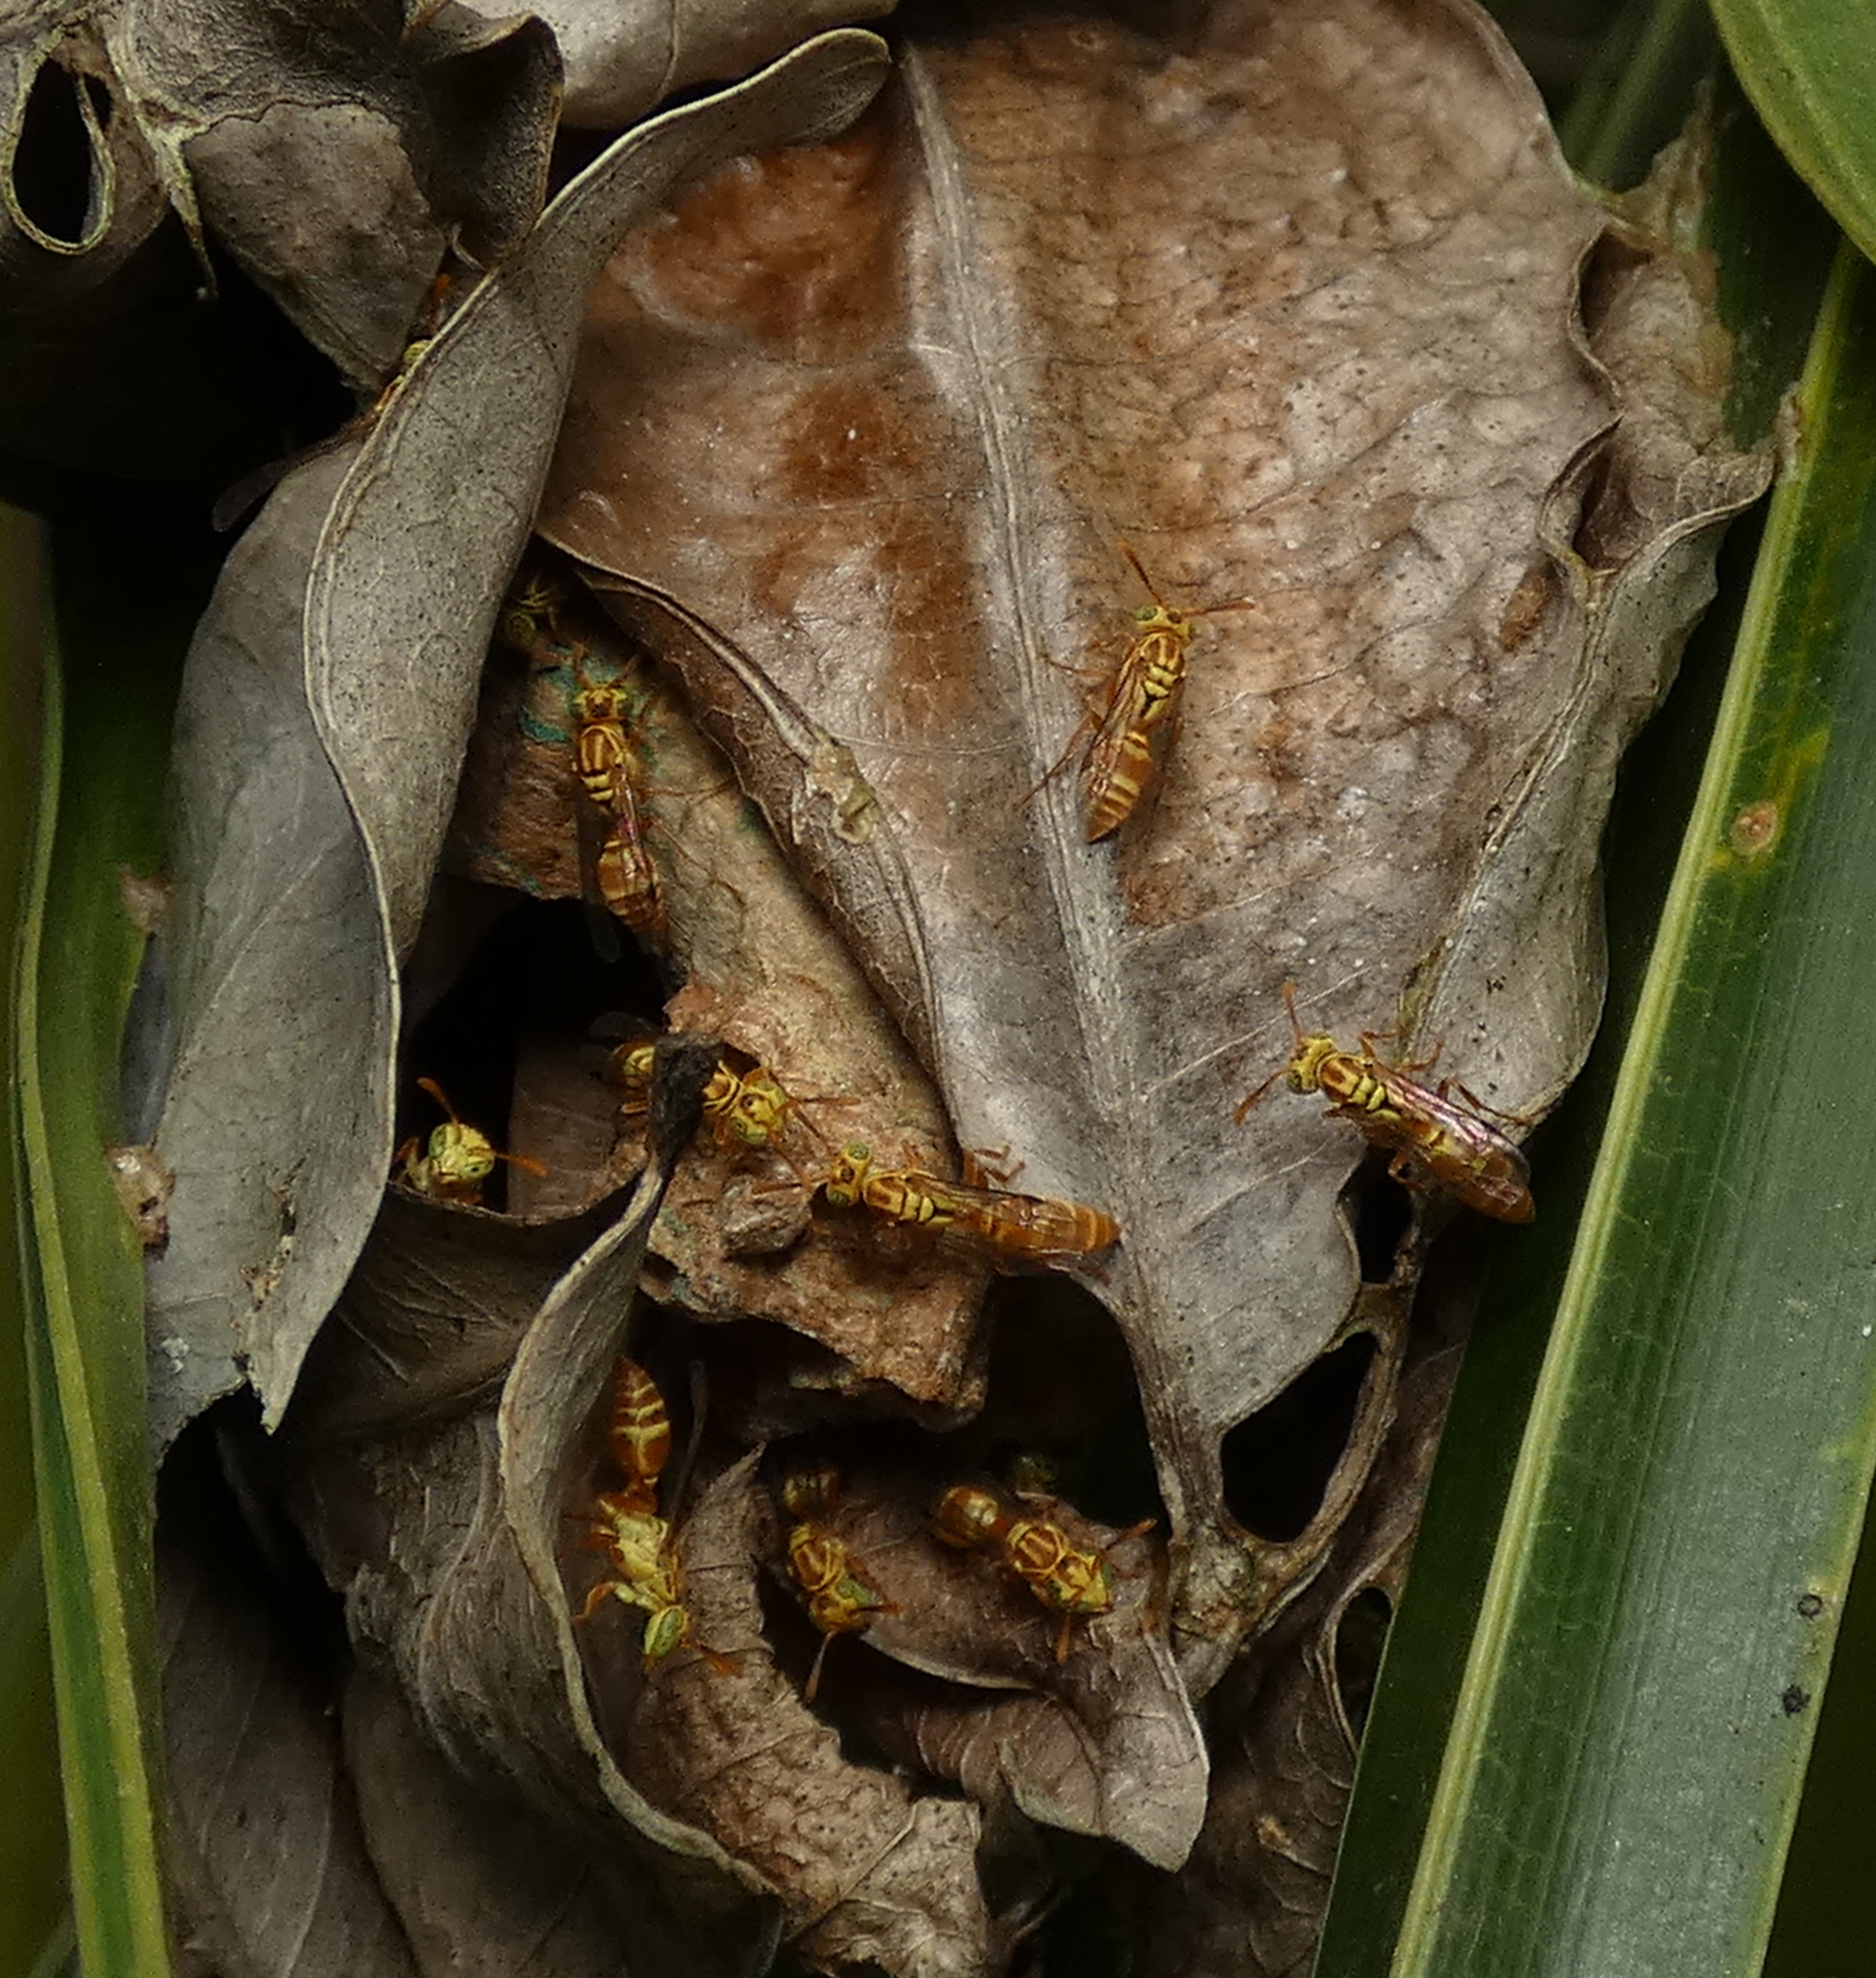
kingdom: Animalia
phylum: Arthropoda
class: Insecta
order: Hymenoptera
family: Vespidae
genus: Protopolybia
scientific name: Protopolybia potiguara
